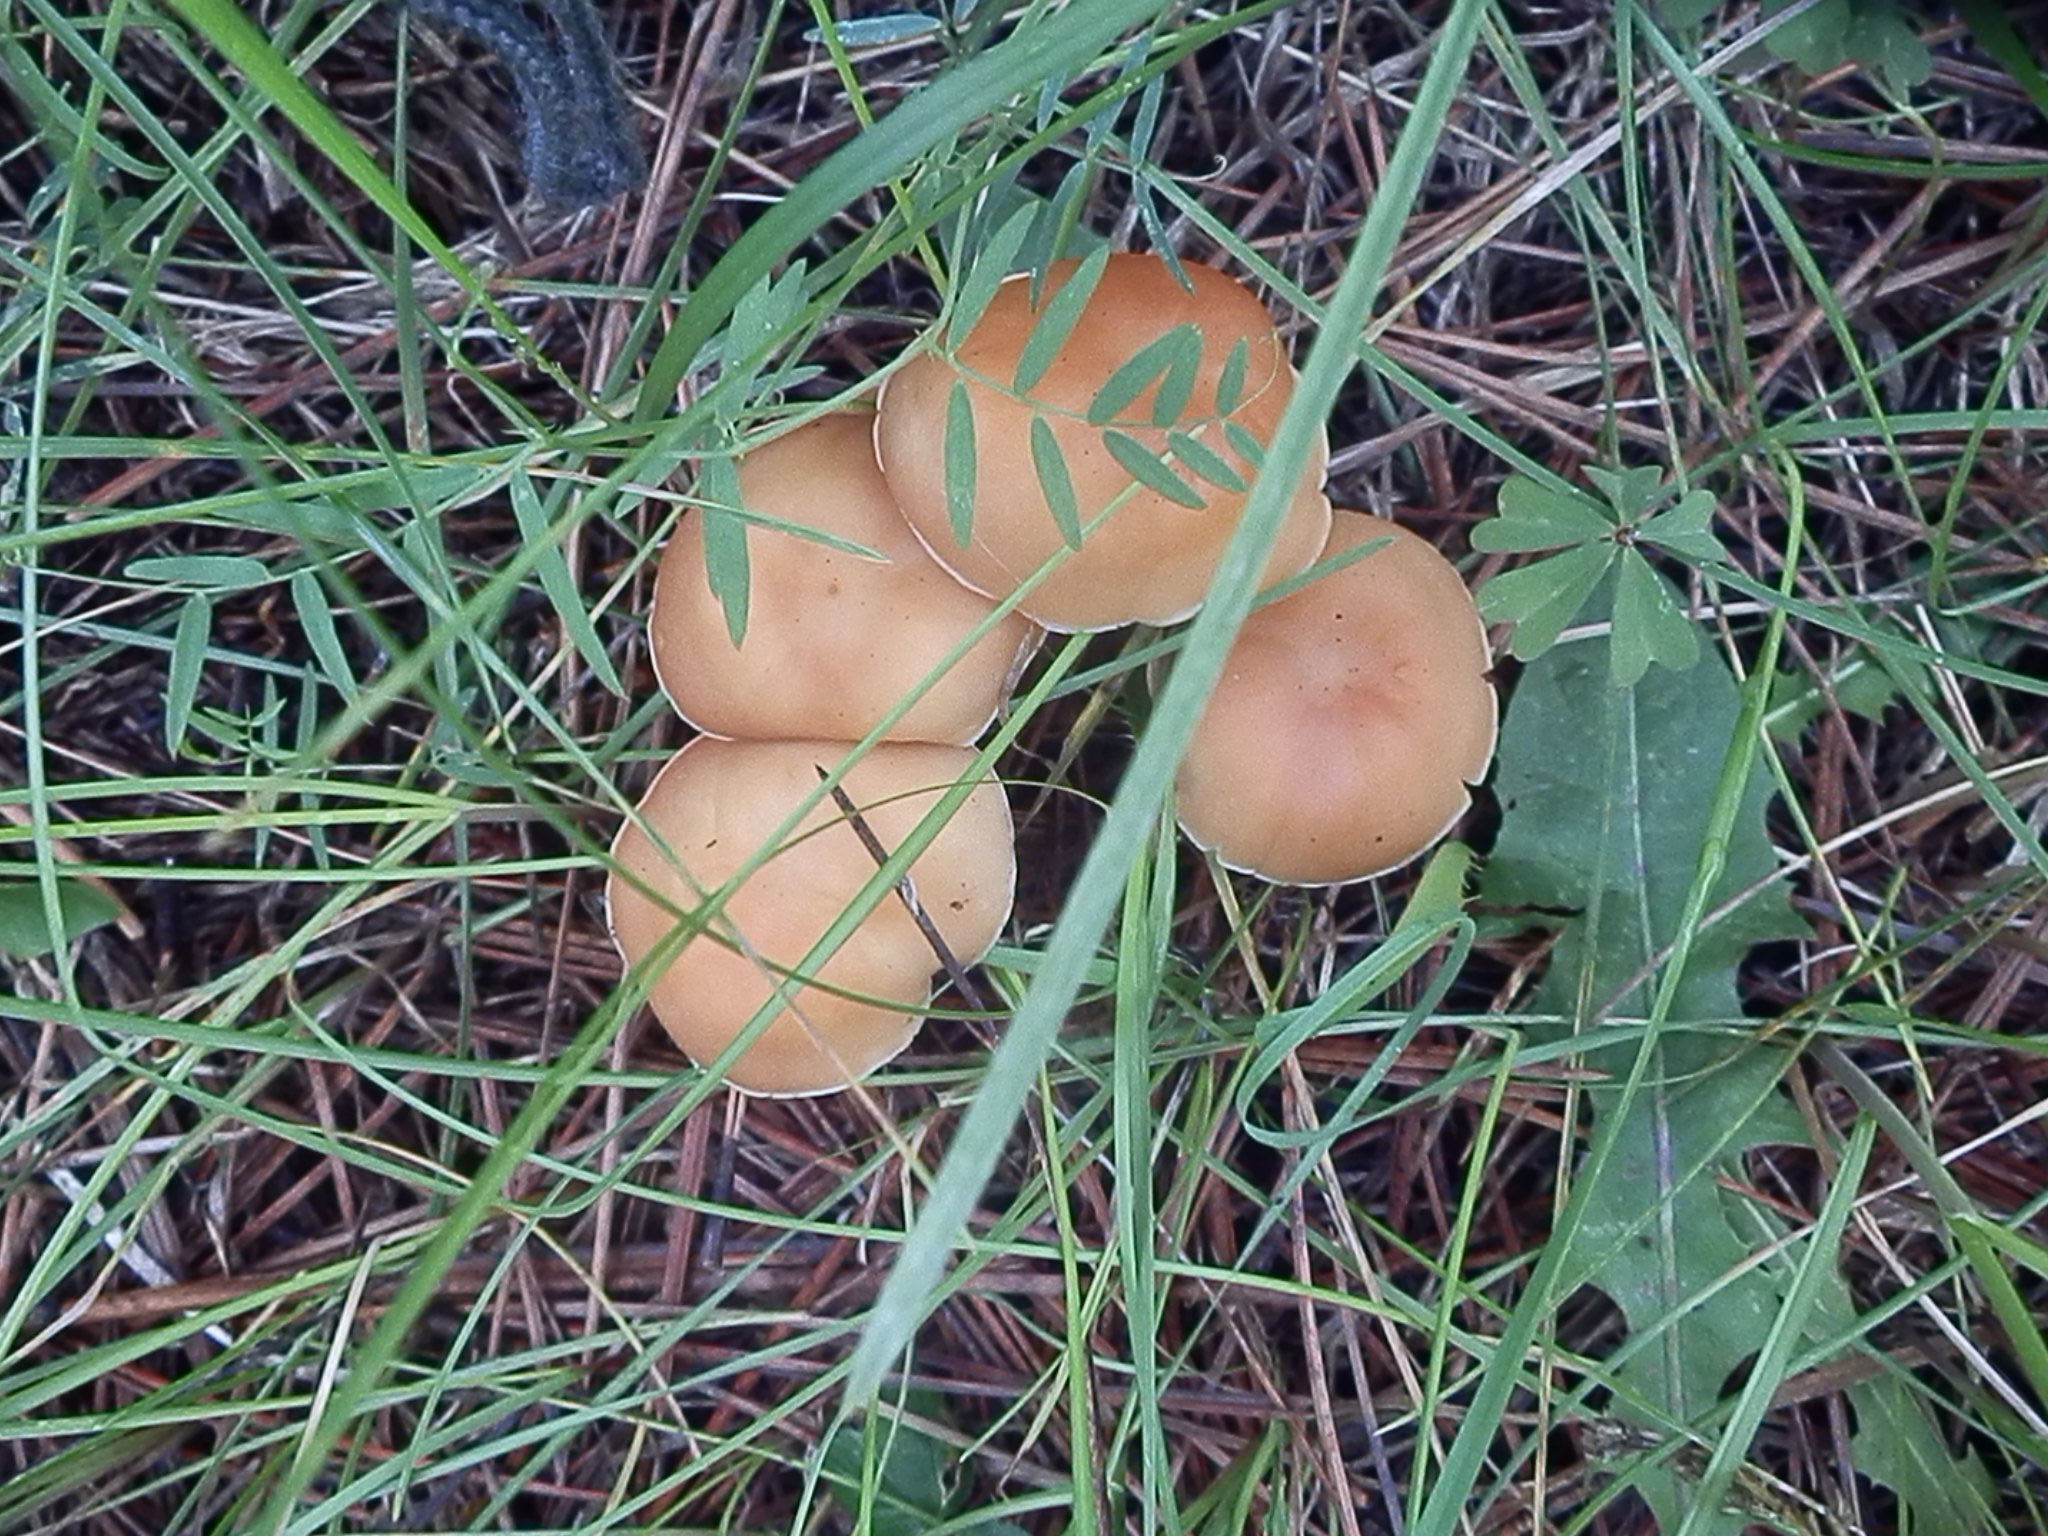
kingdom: Fungi
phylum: Basidiomycota
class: Agaricomycetes
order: Agaricales
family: Omphalotaceae
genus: Gymnopus
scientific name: Gymnopus dryophilus
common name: Penny top
